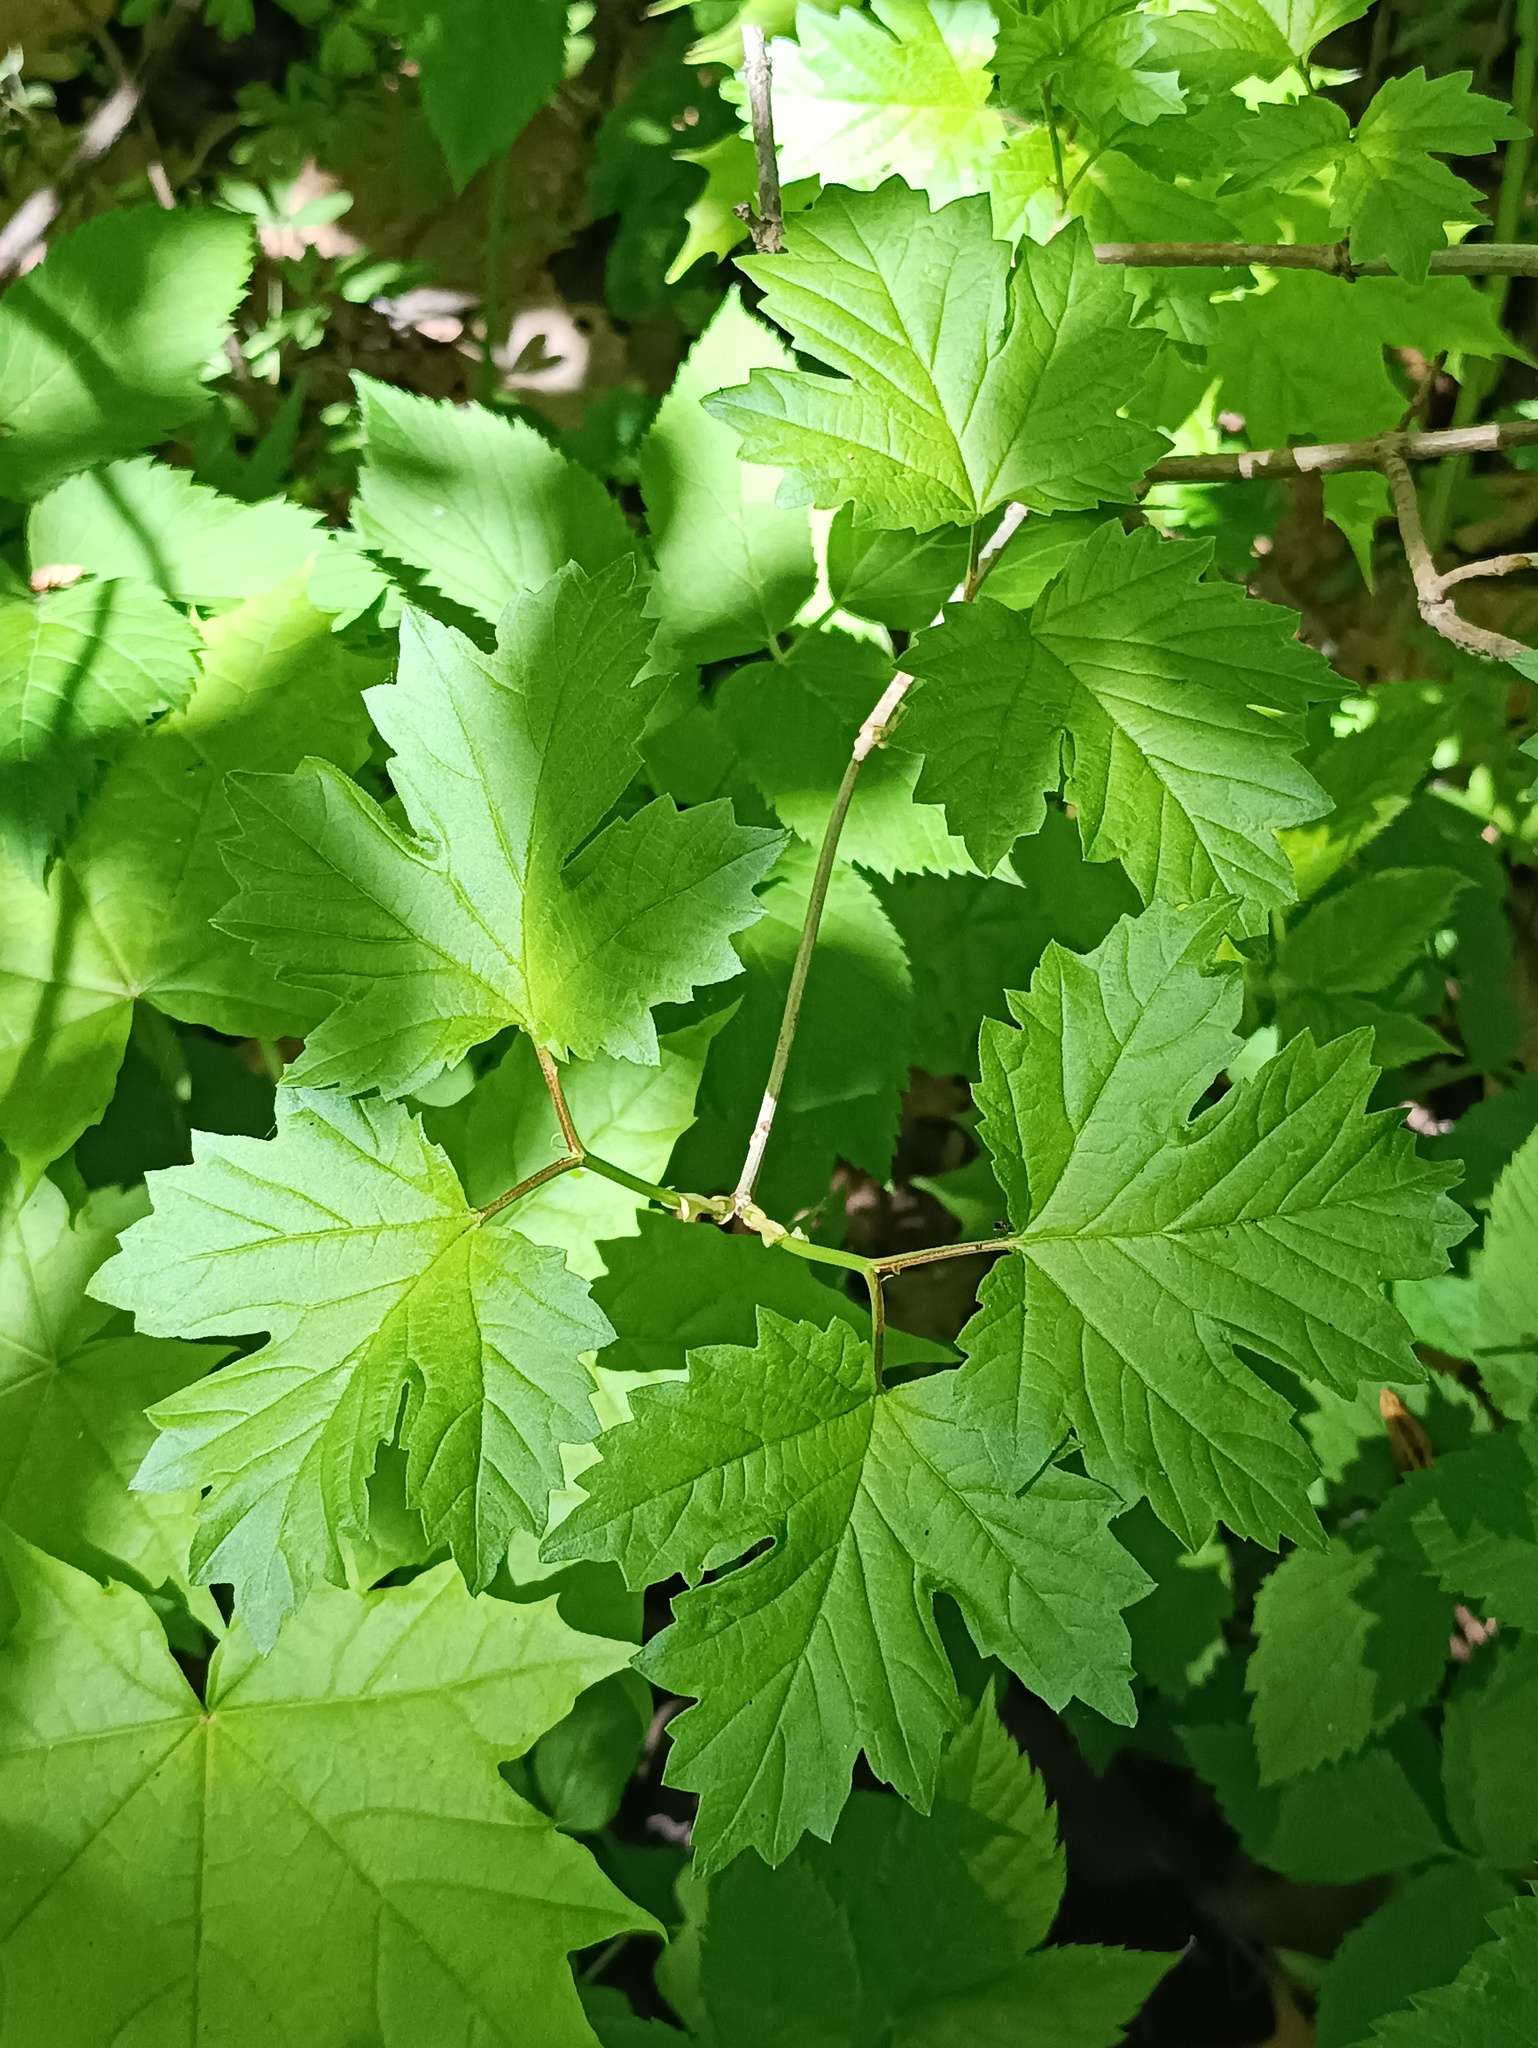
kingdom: Plantae
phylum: Tracheophyta
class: Magnoliopsida
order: Dipsacales
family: Viburnaceae
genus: Viburnum
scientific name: Viburnum opulus
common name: Guelder-rose
